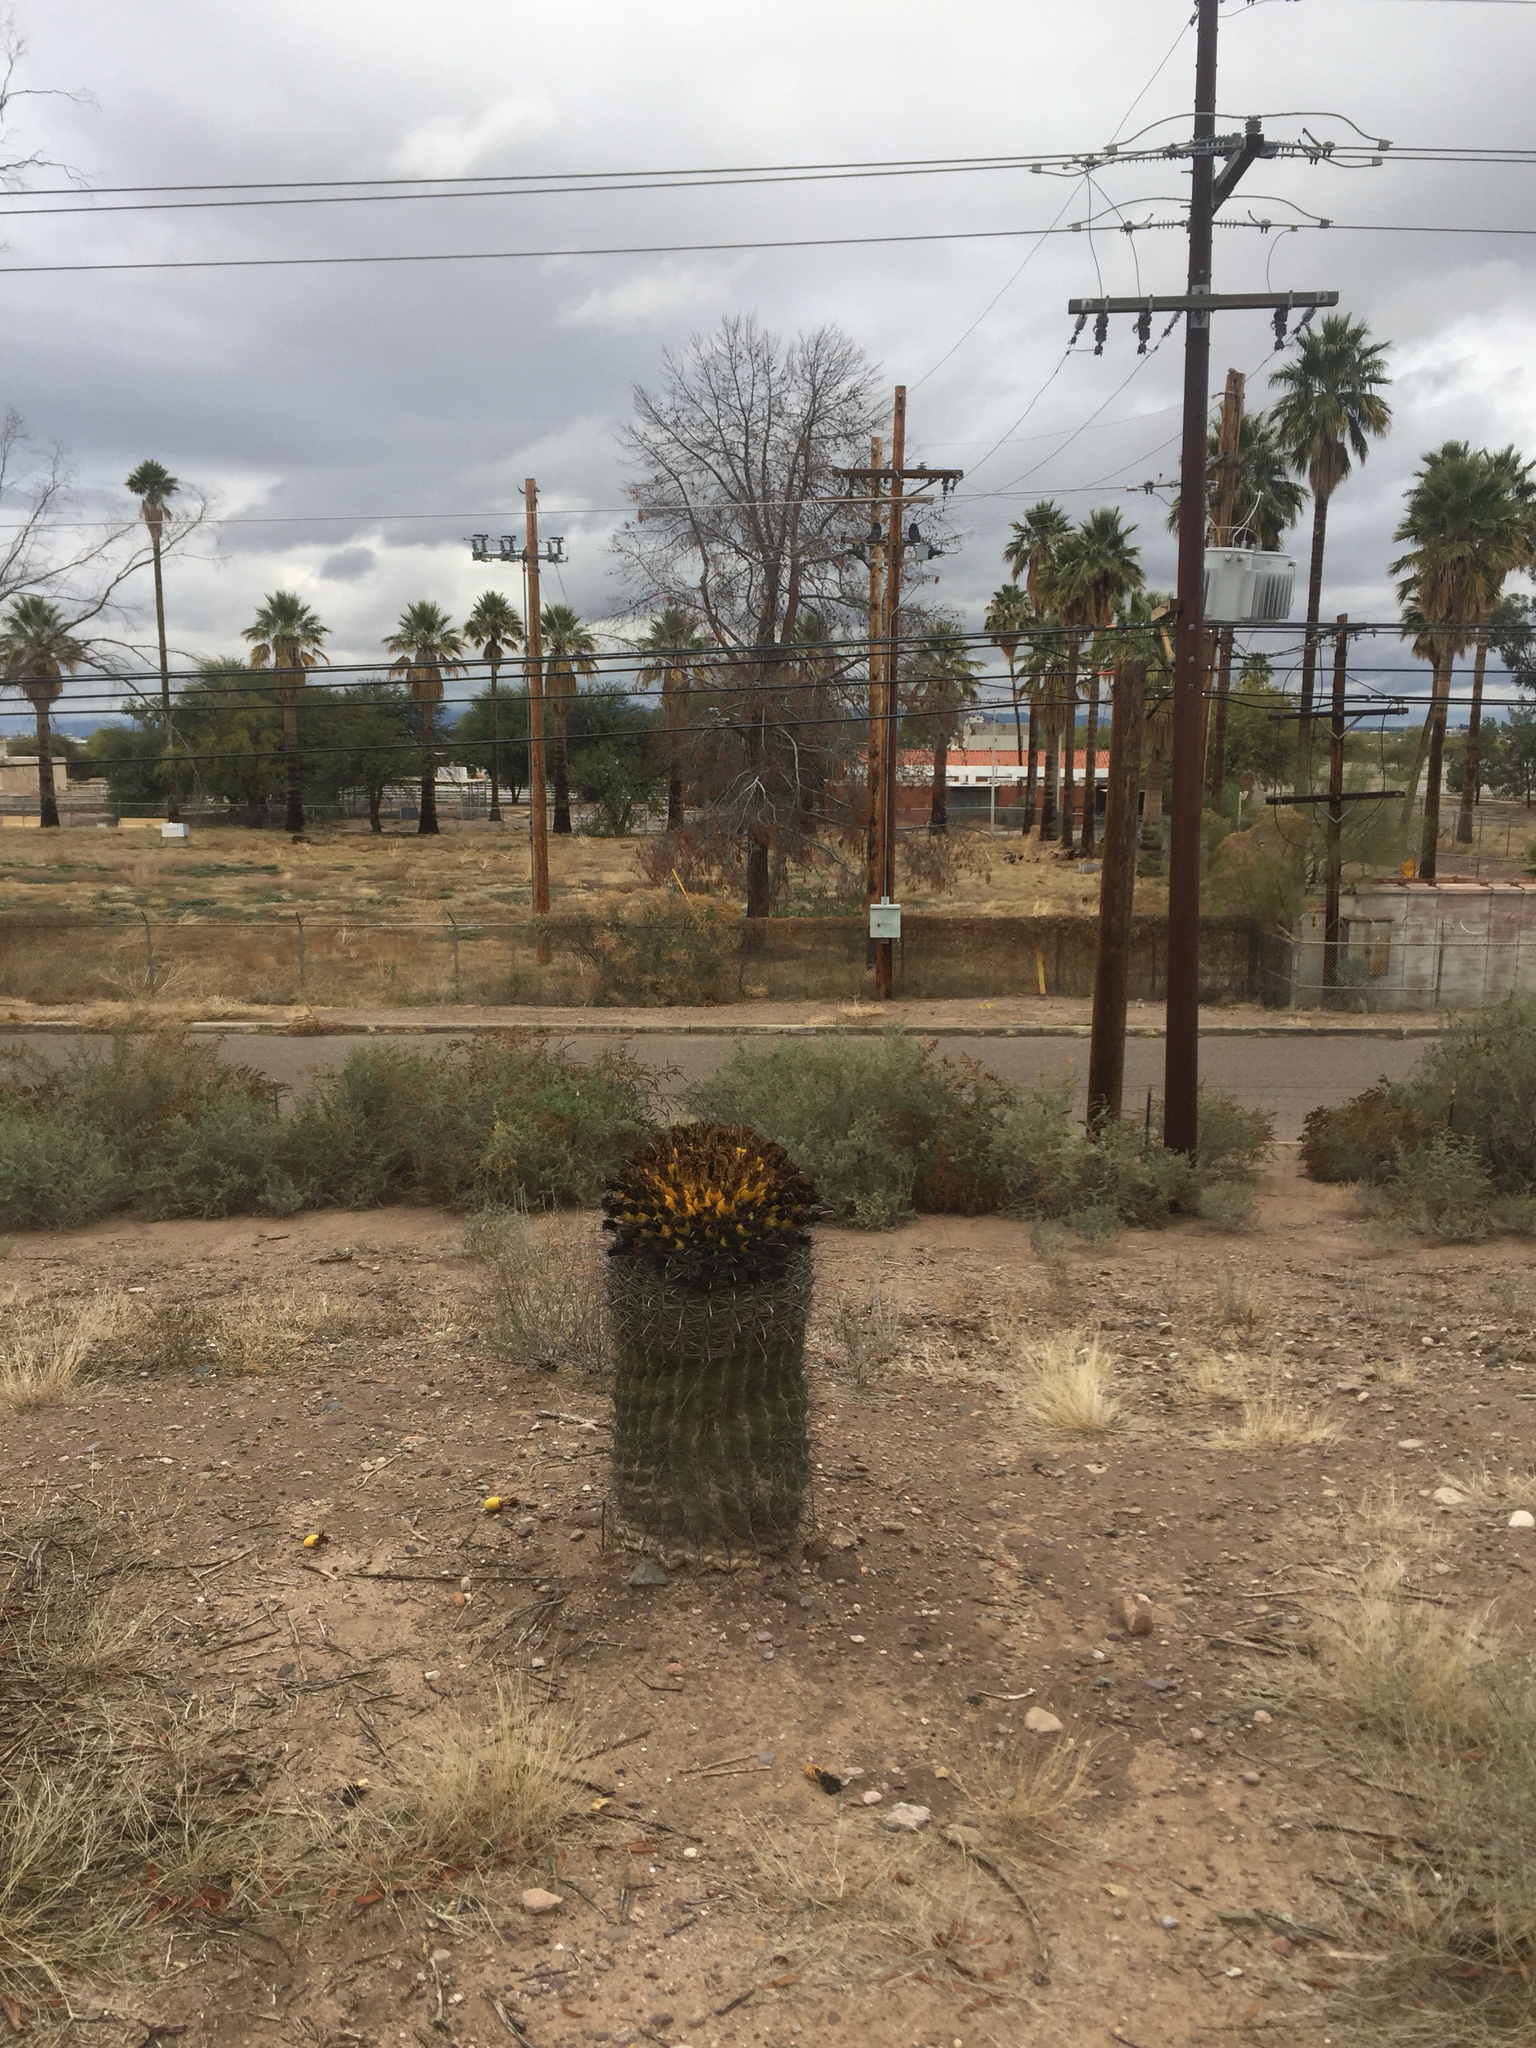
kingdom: Plantae
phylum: Tracheophyta
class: Magnoliopsida
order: Caryophyllales
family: Cactaceae
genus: Ferocactus
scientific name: Ferocactus wislizeni
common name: Candy barrel cactus
